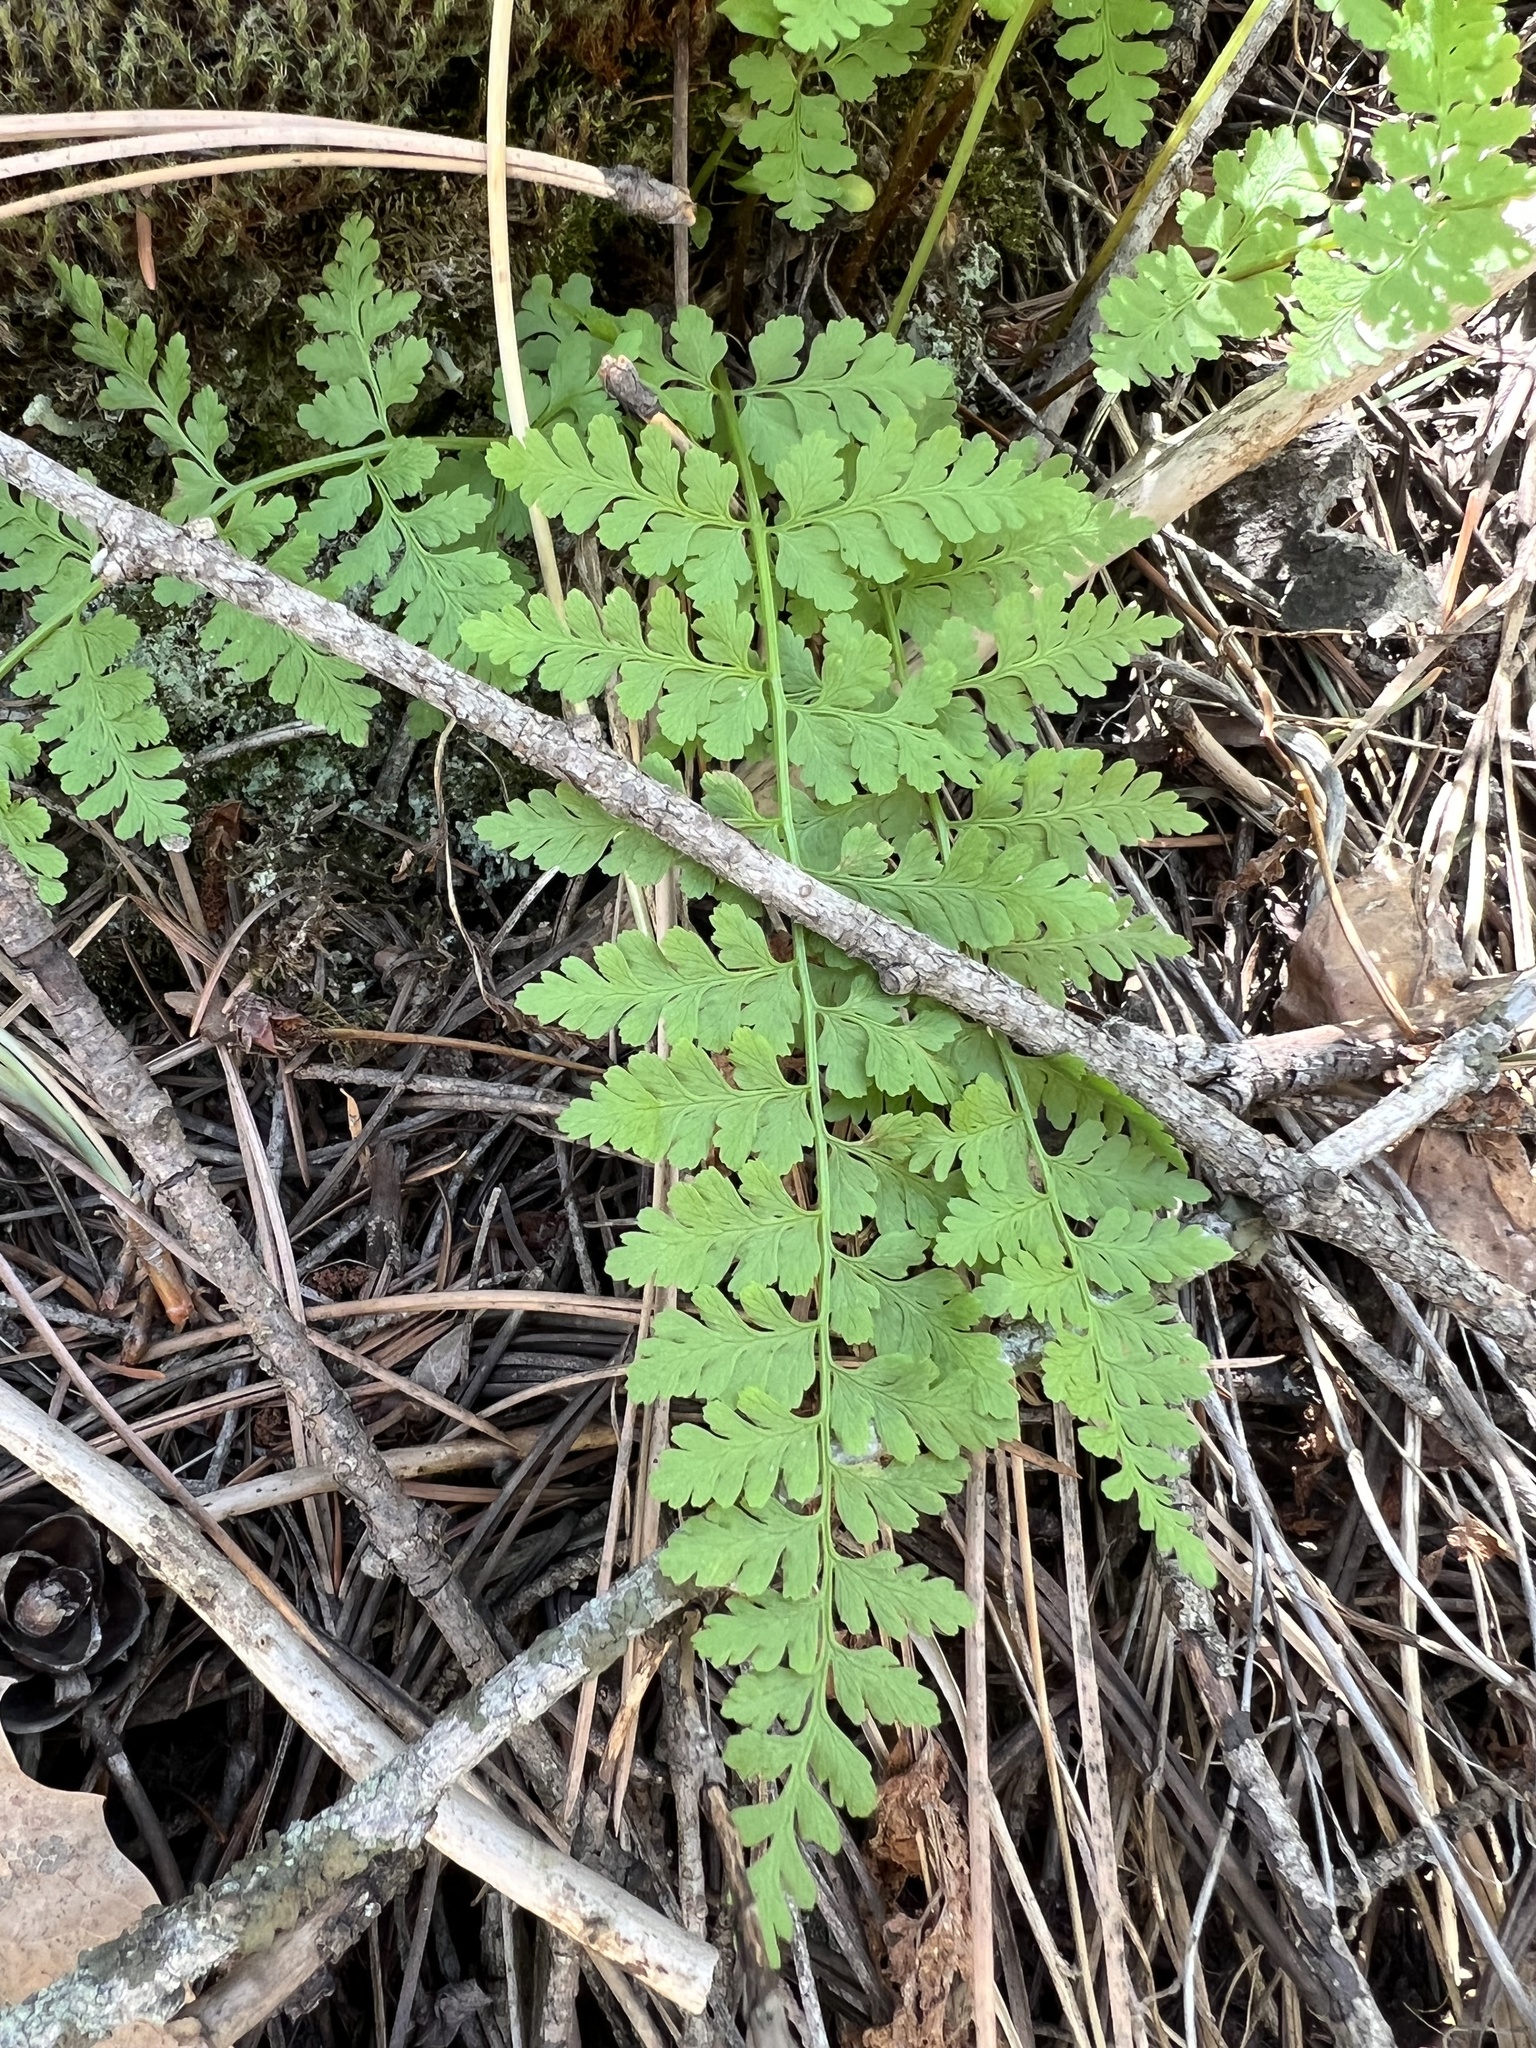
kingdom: Plantae
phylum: Tracheophyta
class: Polypodiopsida
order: Polypodiales
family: Cystopteridaceae
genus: Cystopteris
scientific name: Cystopteris fragilis
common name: Brittle bladder fern
